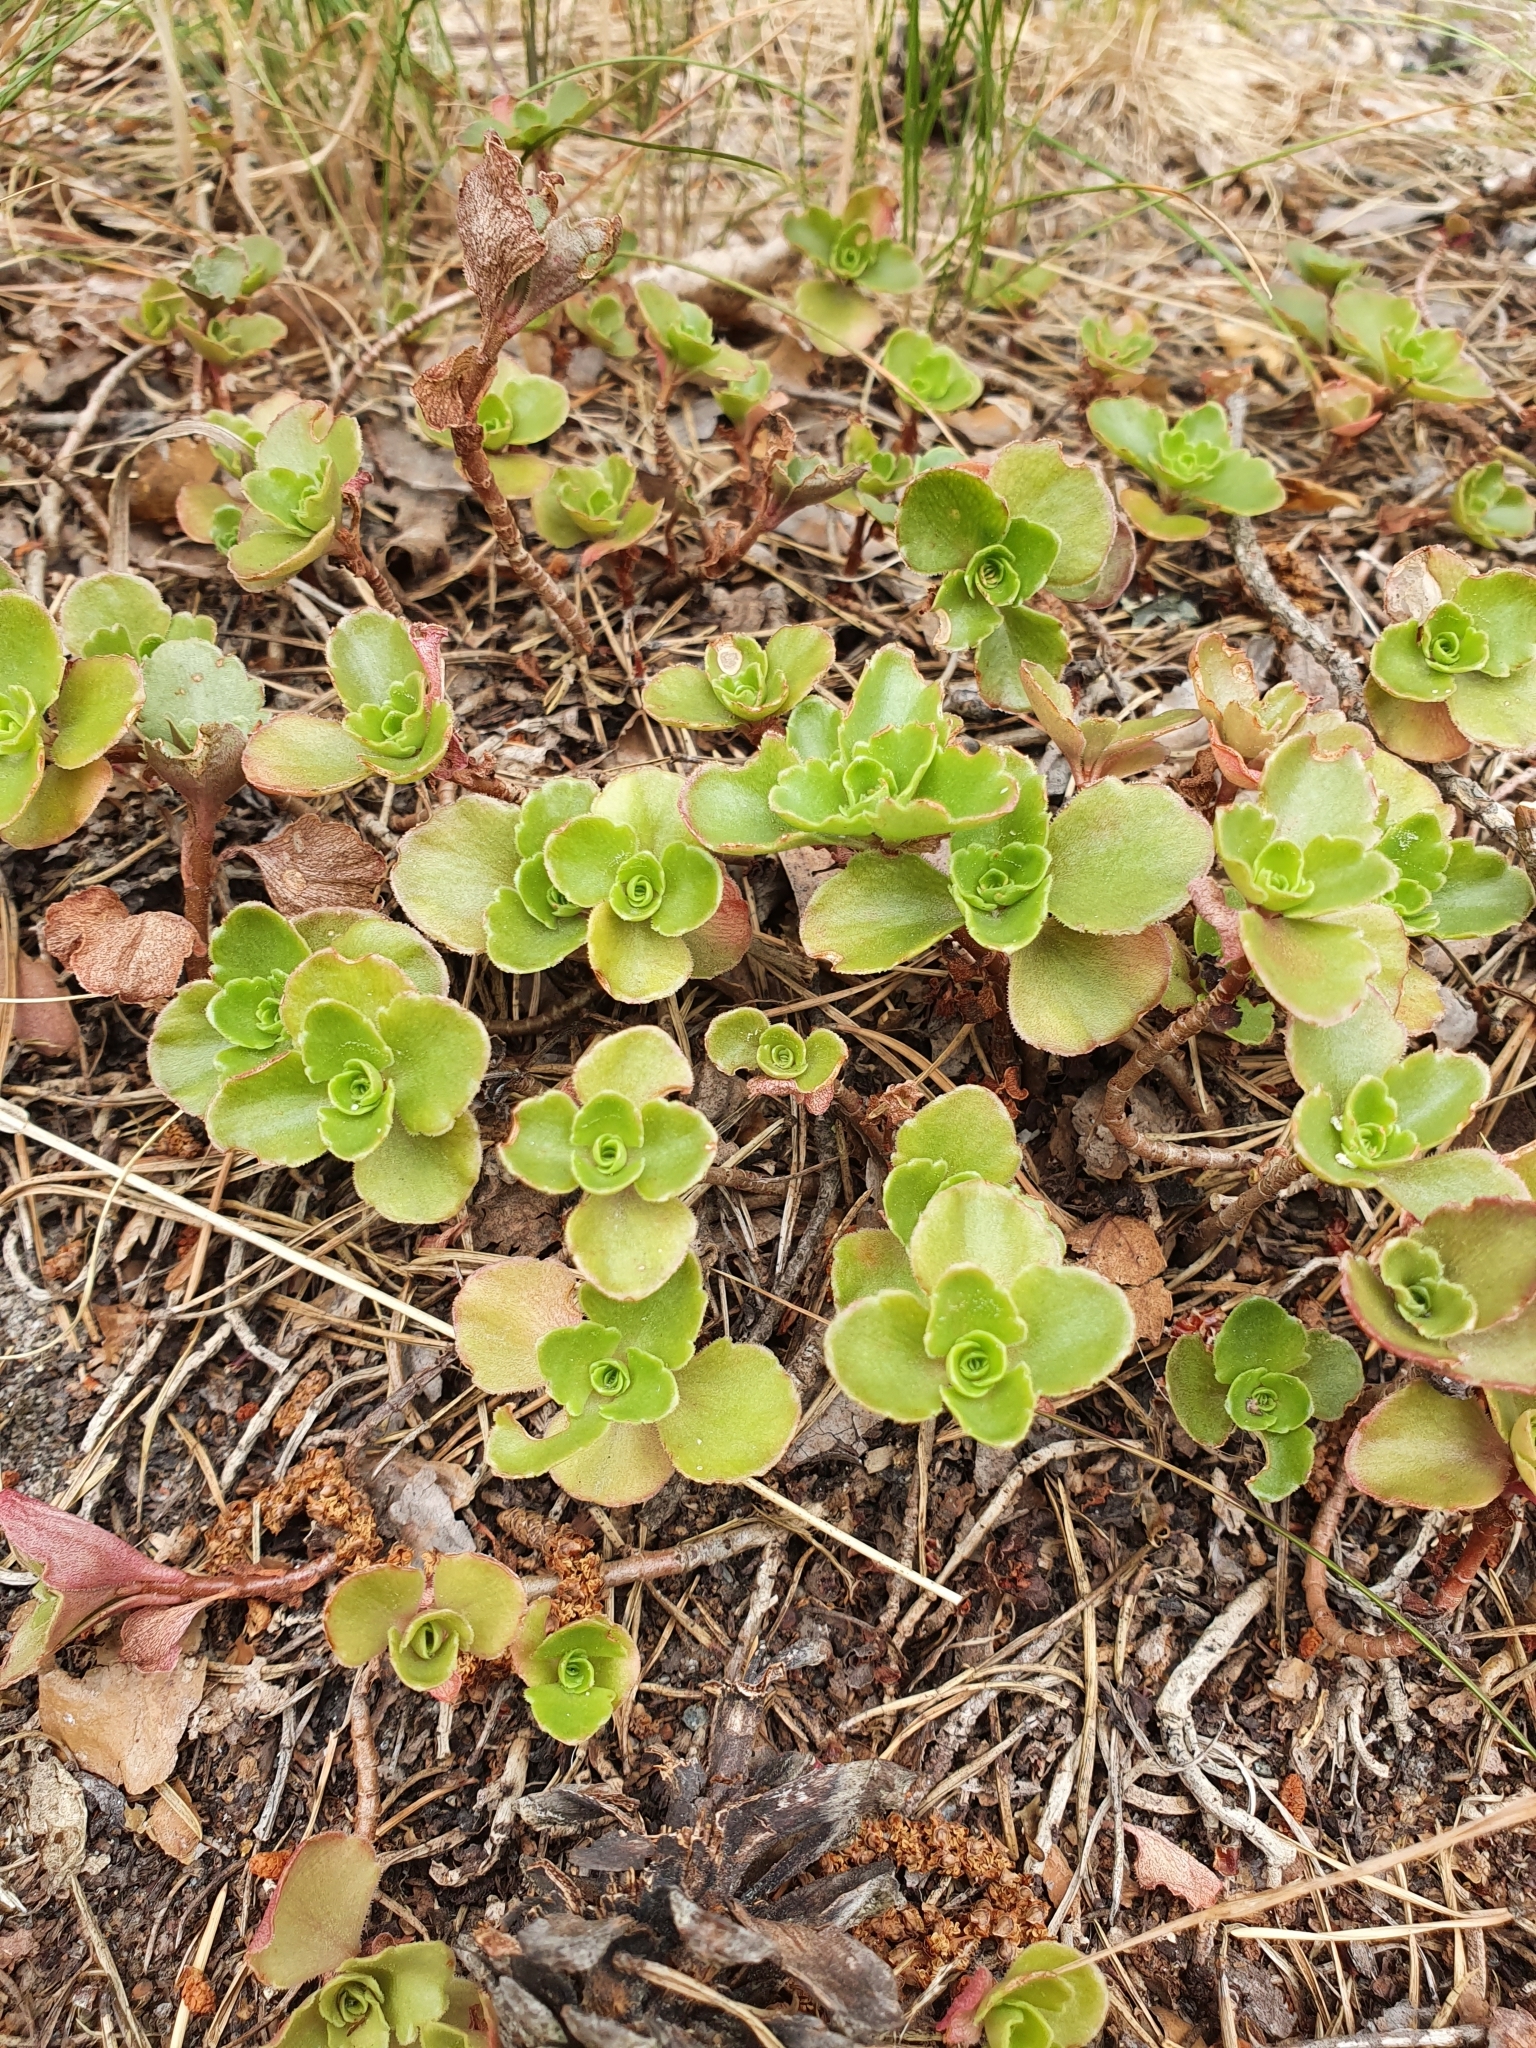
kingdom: Plantae
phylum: Tracheophyta
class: Magnoliopsida
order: Saxifragales
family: Crassulaceae
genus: Phedimus
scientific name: Phedimus spurius
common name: Caucasian stonecrop
